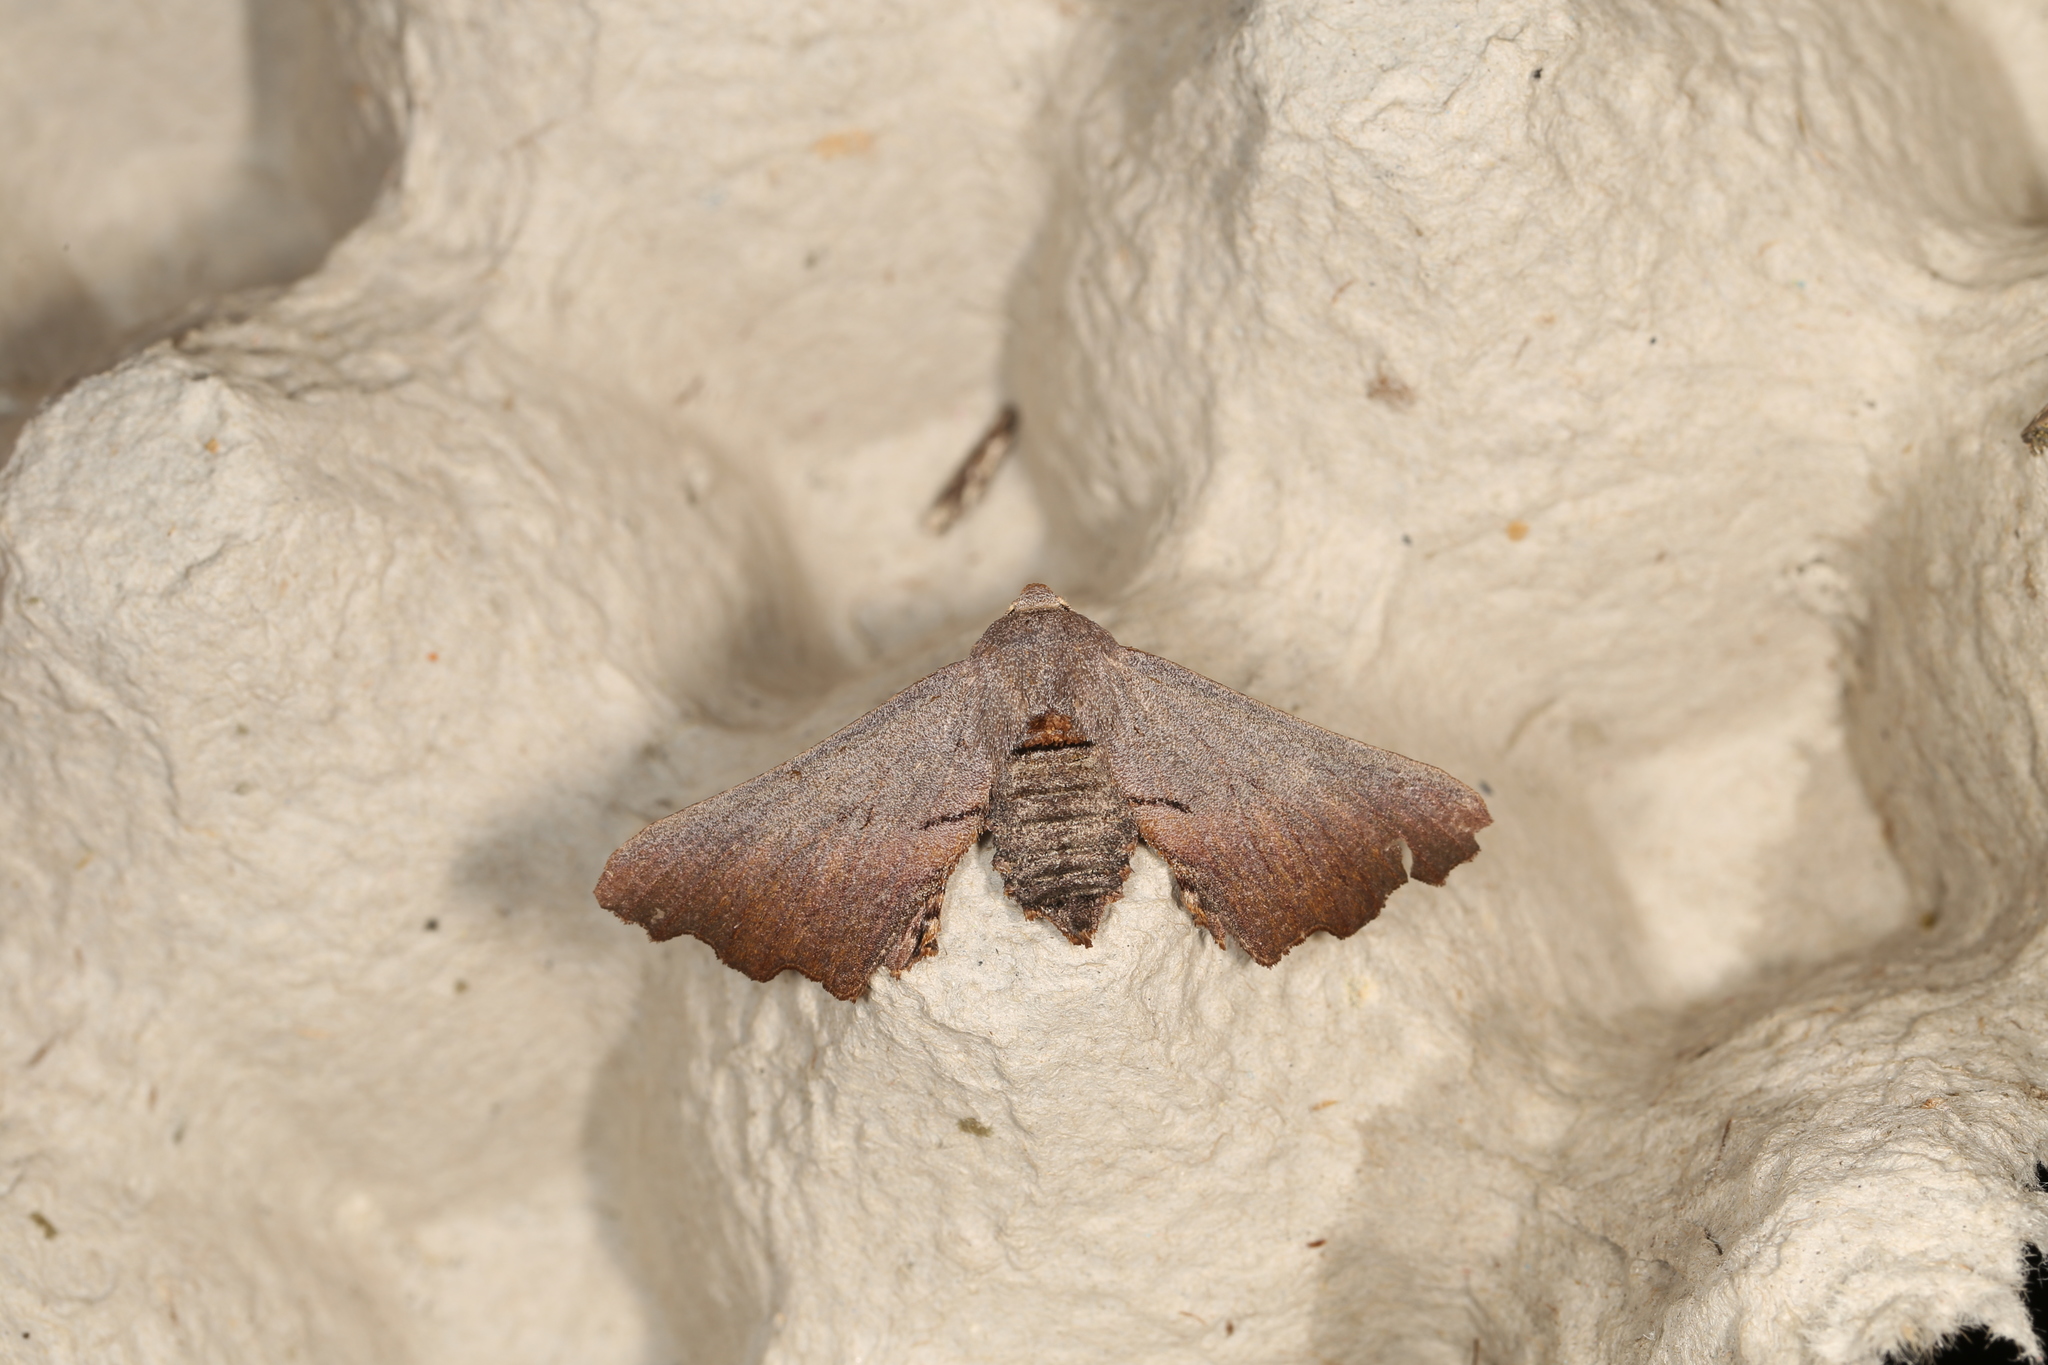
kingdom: Animalia
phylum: Arthropoda
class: Insecta
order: Lepidoptera
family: Geometridae
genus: Amphiclasta
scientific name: Amphiclasta lygaea
